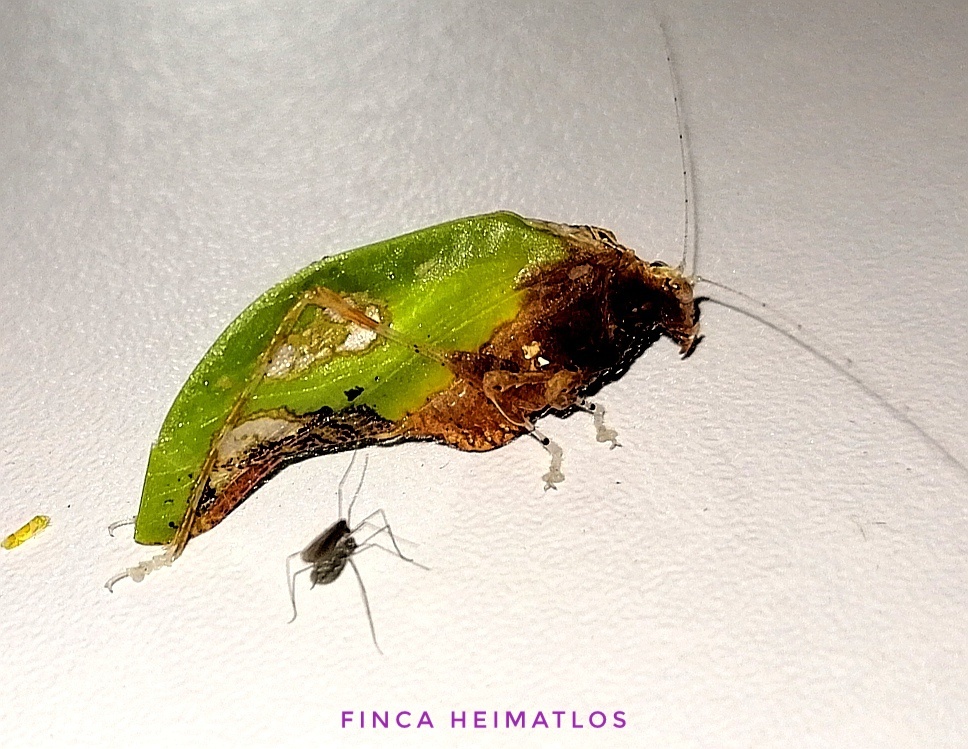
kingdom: Animalia
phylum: Arthropoda
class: Insecta
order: Orthoptera
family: Tettigoniidae
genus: Pycnopalpa
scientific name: Pycnopalpa bicordata
